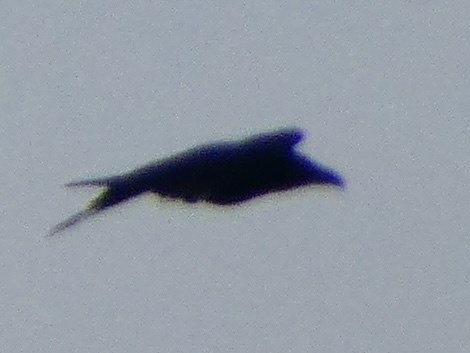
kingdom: Animalia
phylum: Chordata
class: Aves
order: Passeriformes
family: Corvidae
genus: Corvus
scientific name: Corvus corax
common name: Common raven
